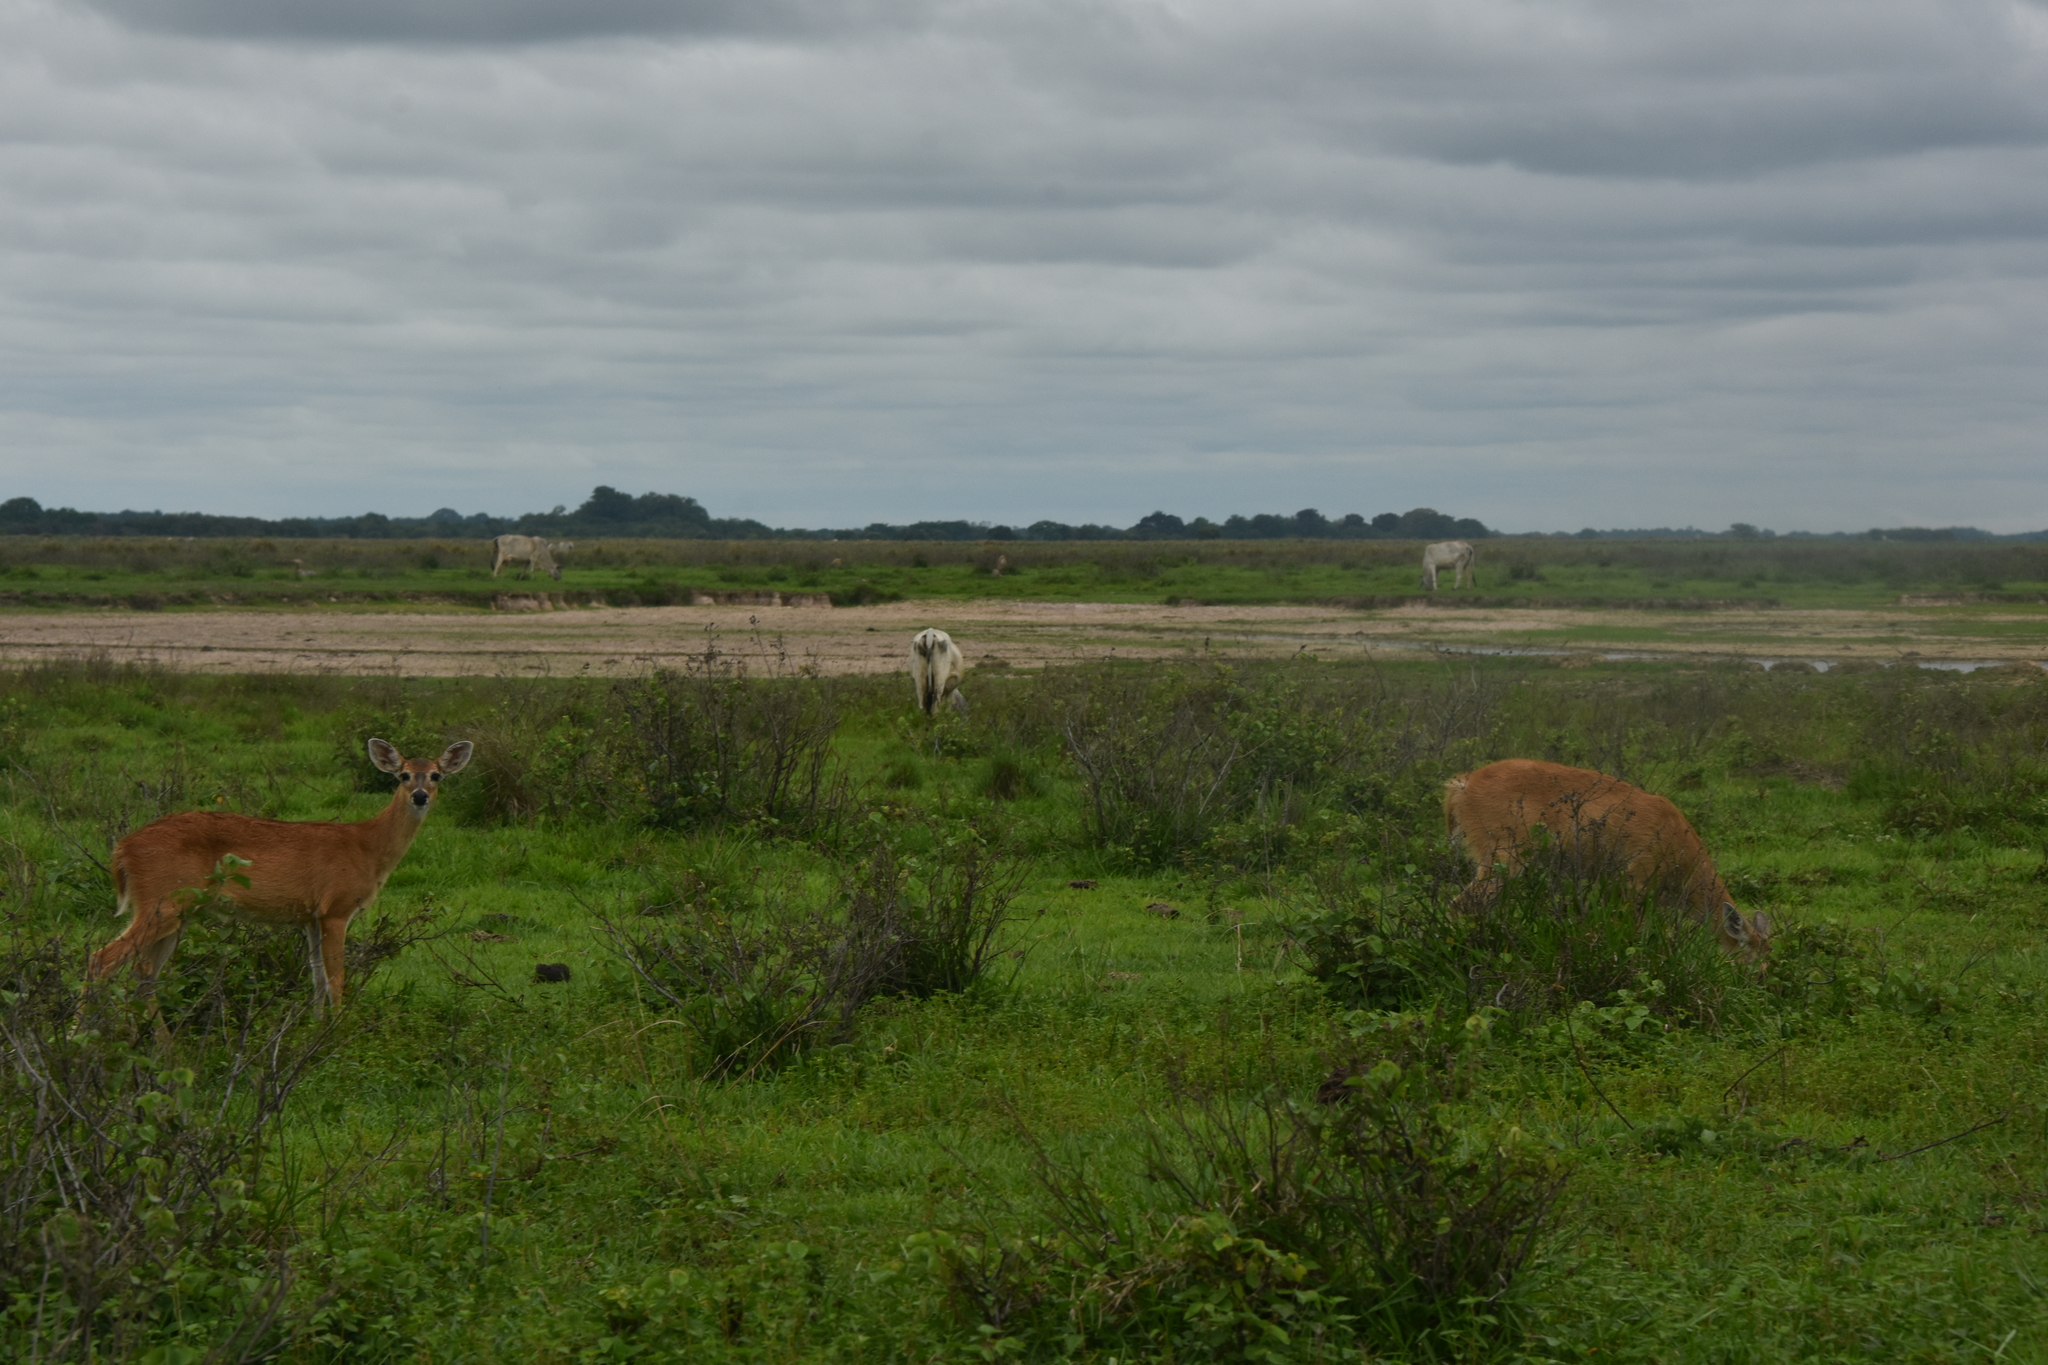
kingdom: Animalia
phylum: Chordata
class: Mammalia
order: Artiodactyla
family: Cervidae
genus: Odocoileus
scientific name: Odocoileus virginianus
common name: White-tailed deer
